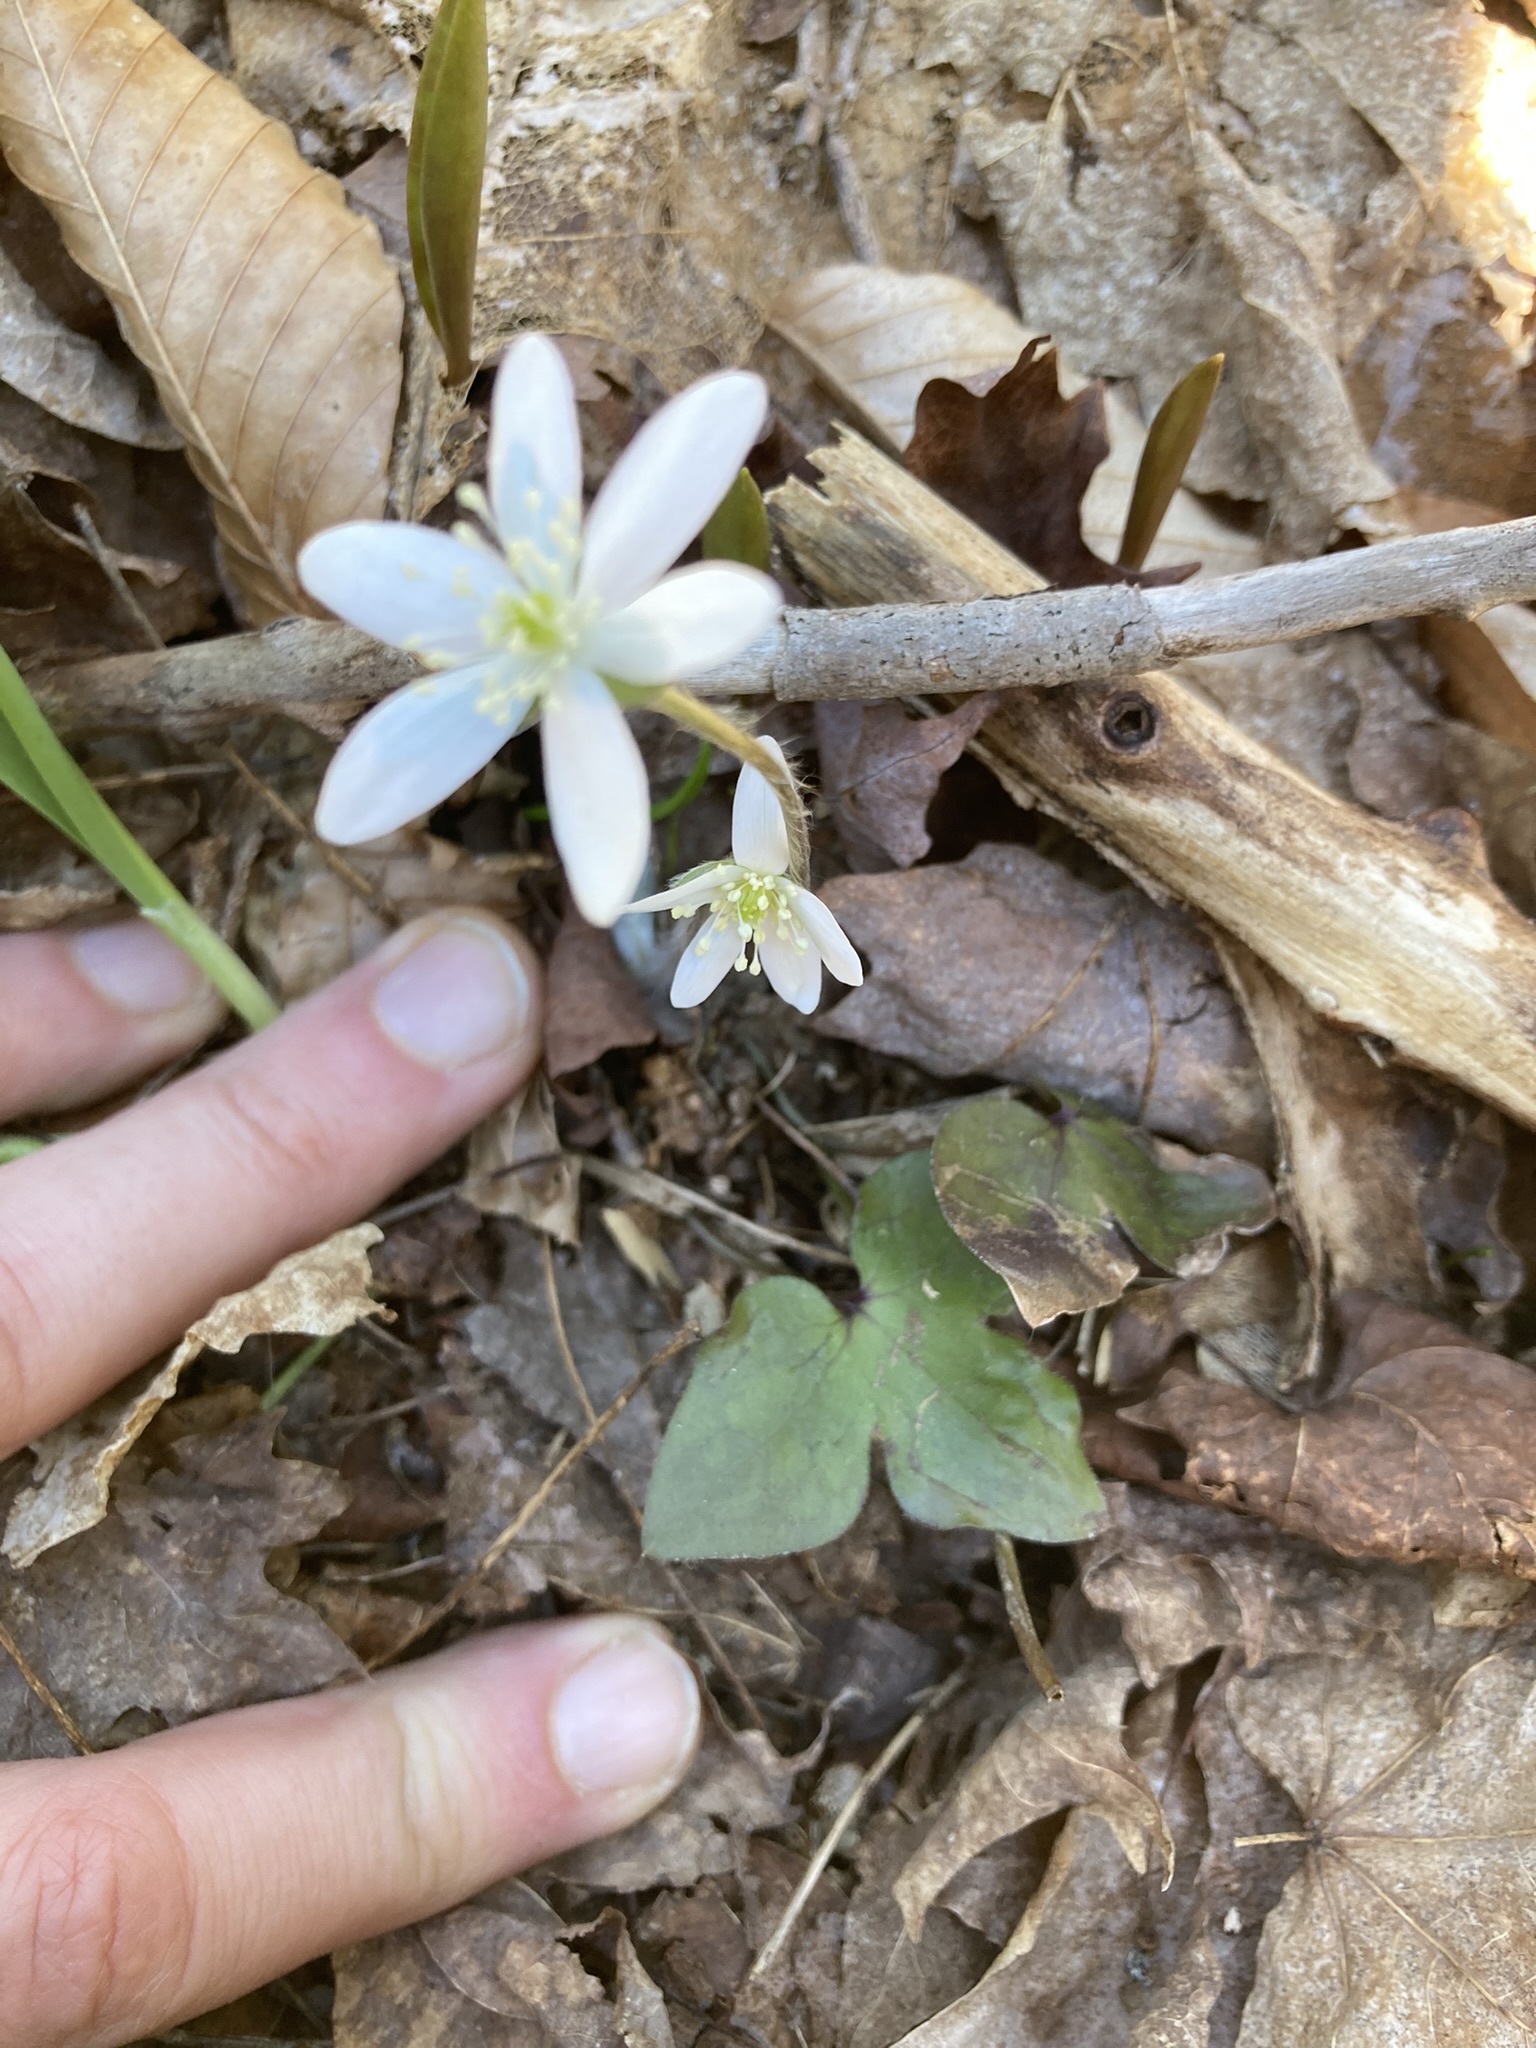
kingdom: Plantae
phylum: Tracheophyta
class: Magnoliopsida
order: Ranunculales
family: Ranunculaceae
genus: Hepatica
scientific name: Hepatica acutiloba
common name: Sharp-lobed hepatica
